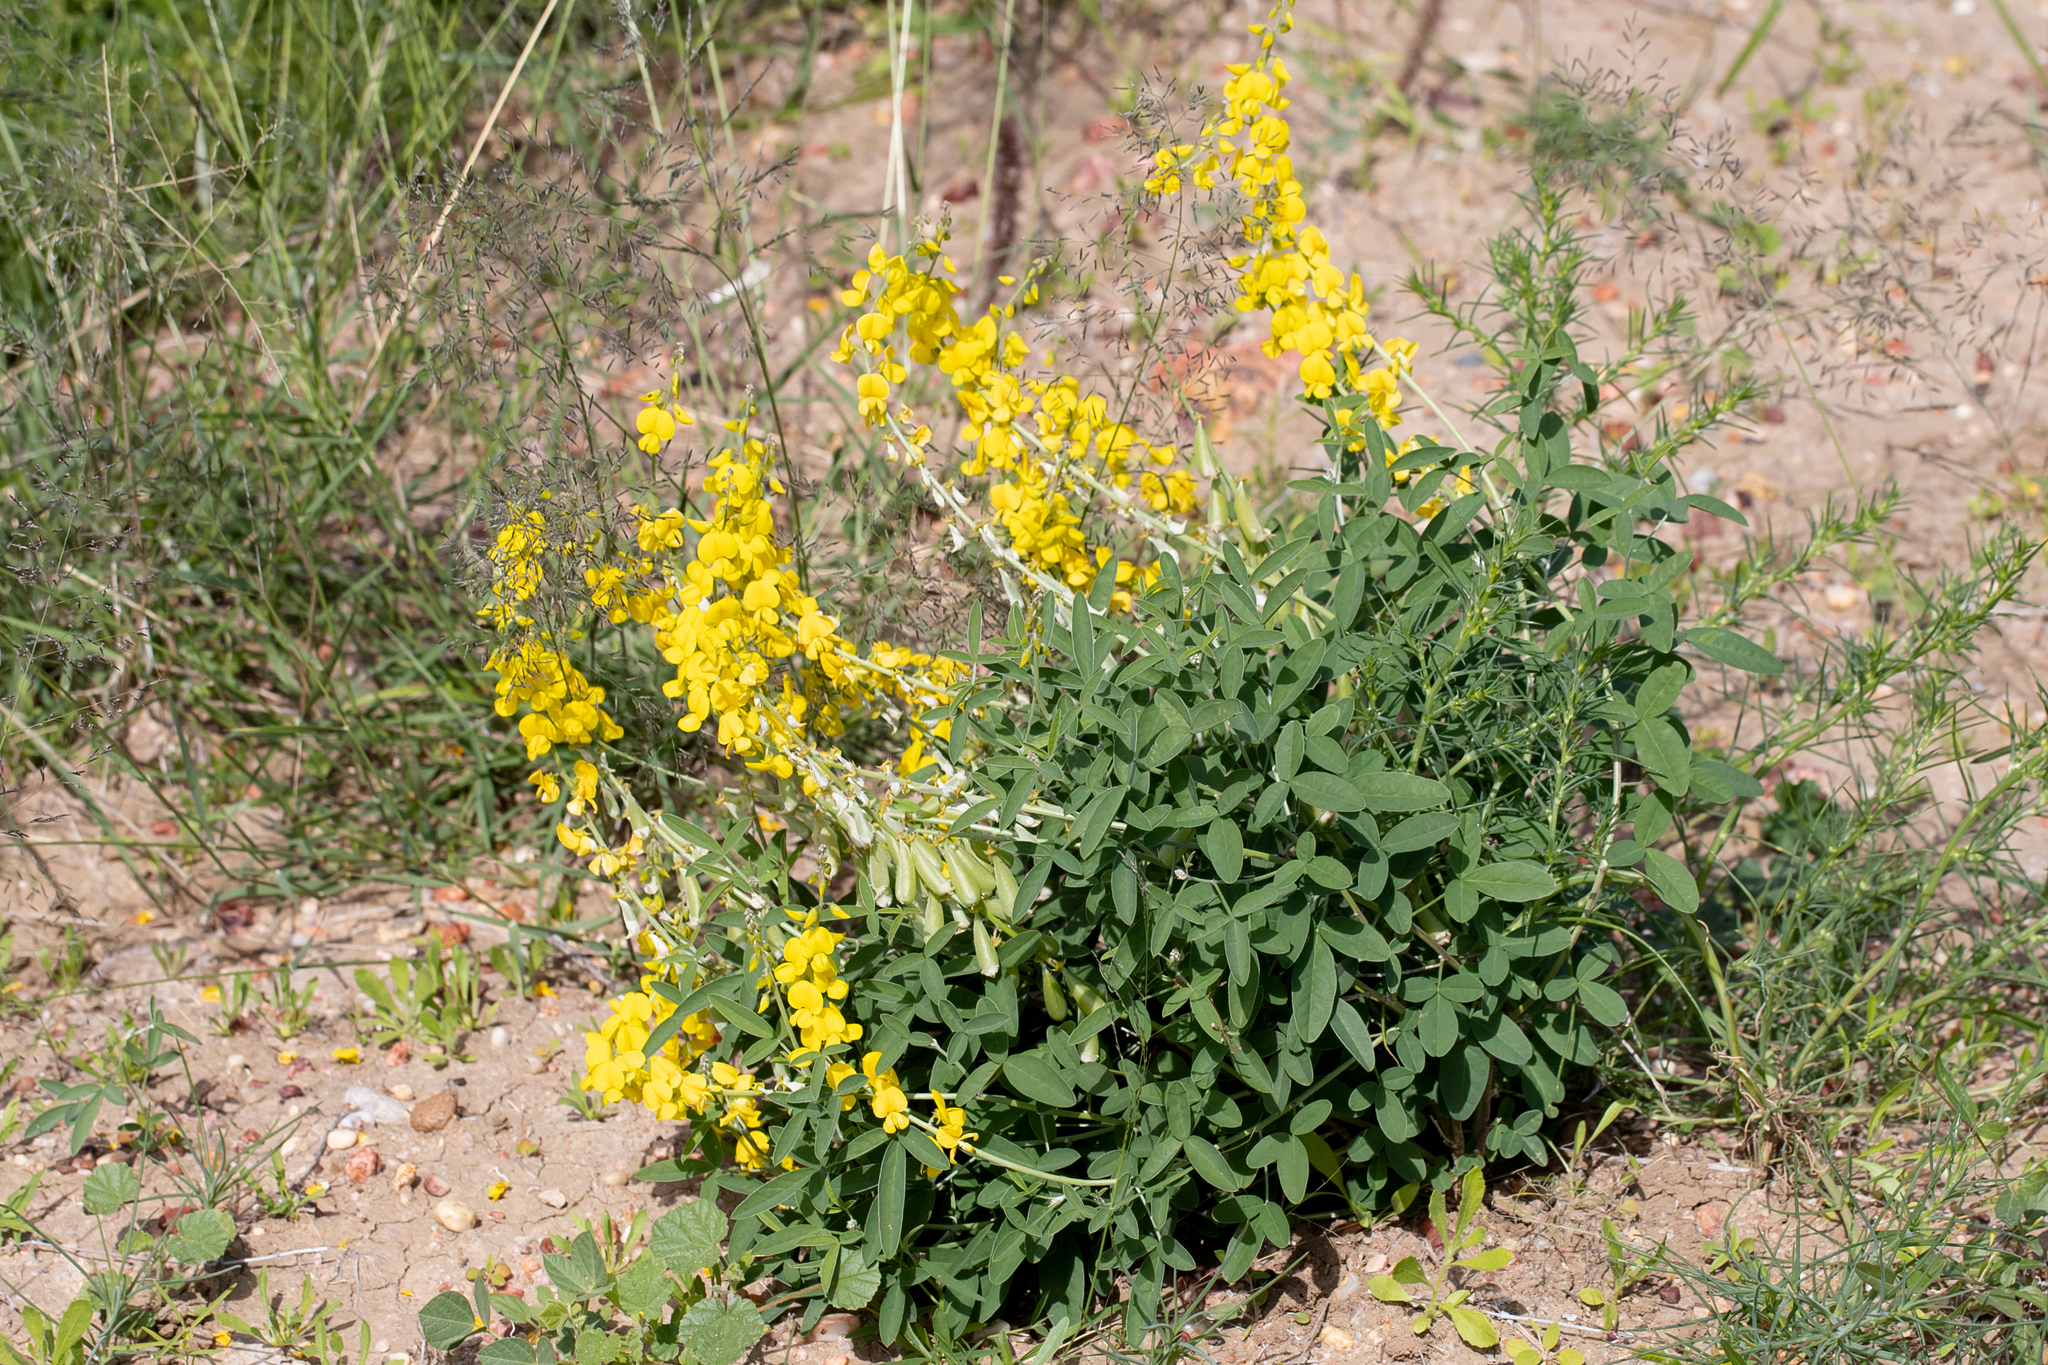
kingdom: Plantae
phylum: Tracheophyta
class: Magnoliopsida
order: Fabales
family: Fabaceae
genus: Crotalaria
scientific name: Crotalaria dissitiflora
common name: Grey rattlepod
